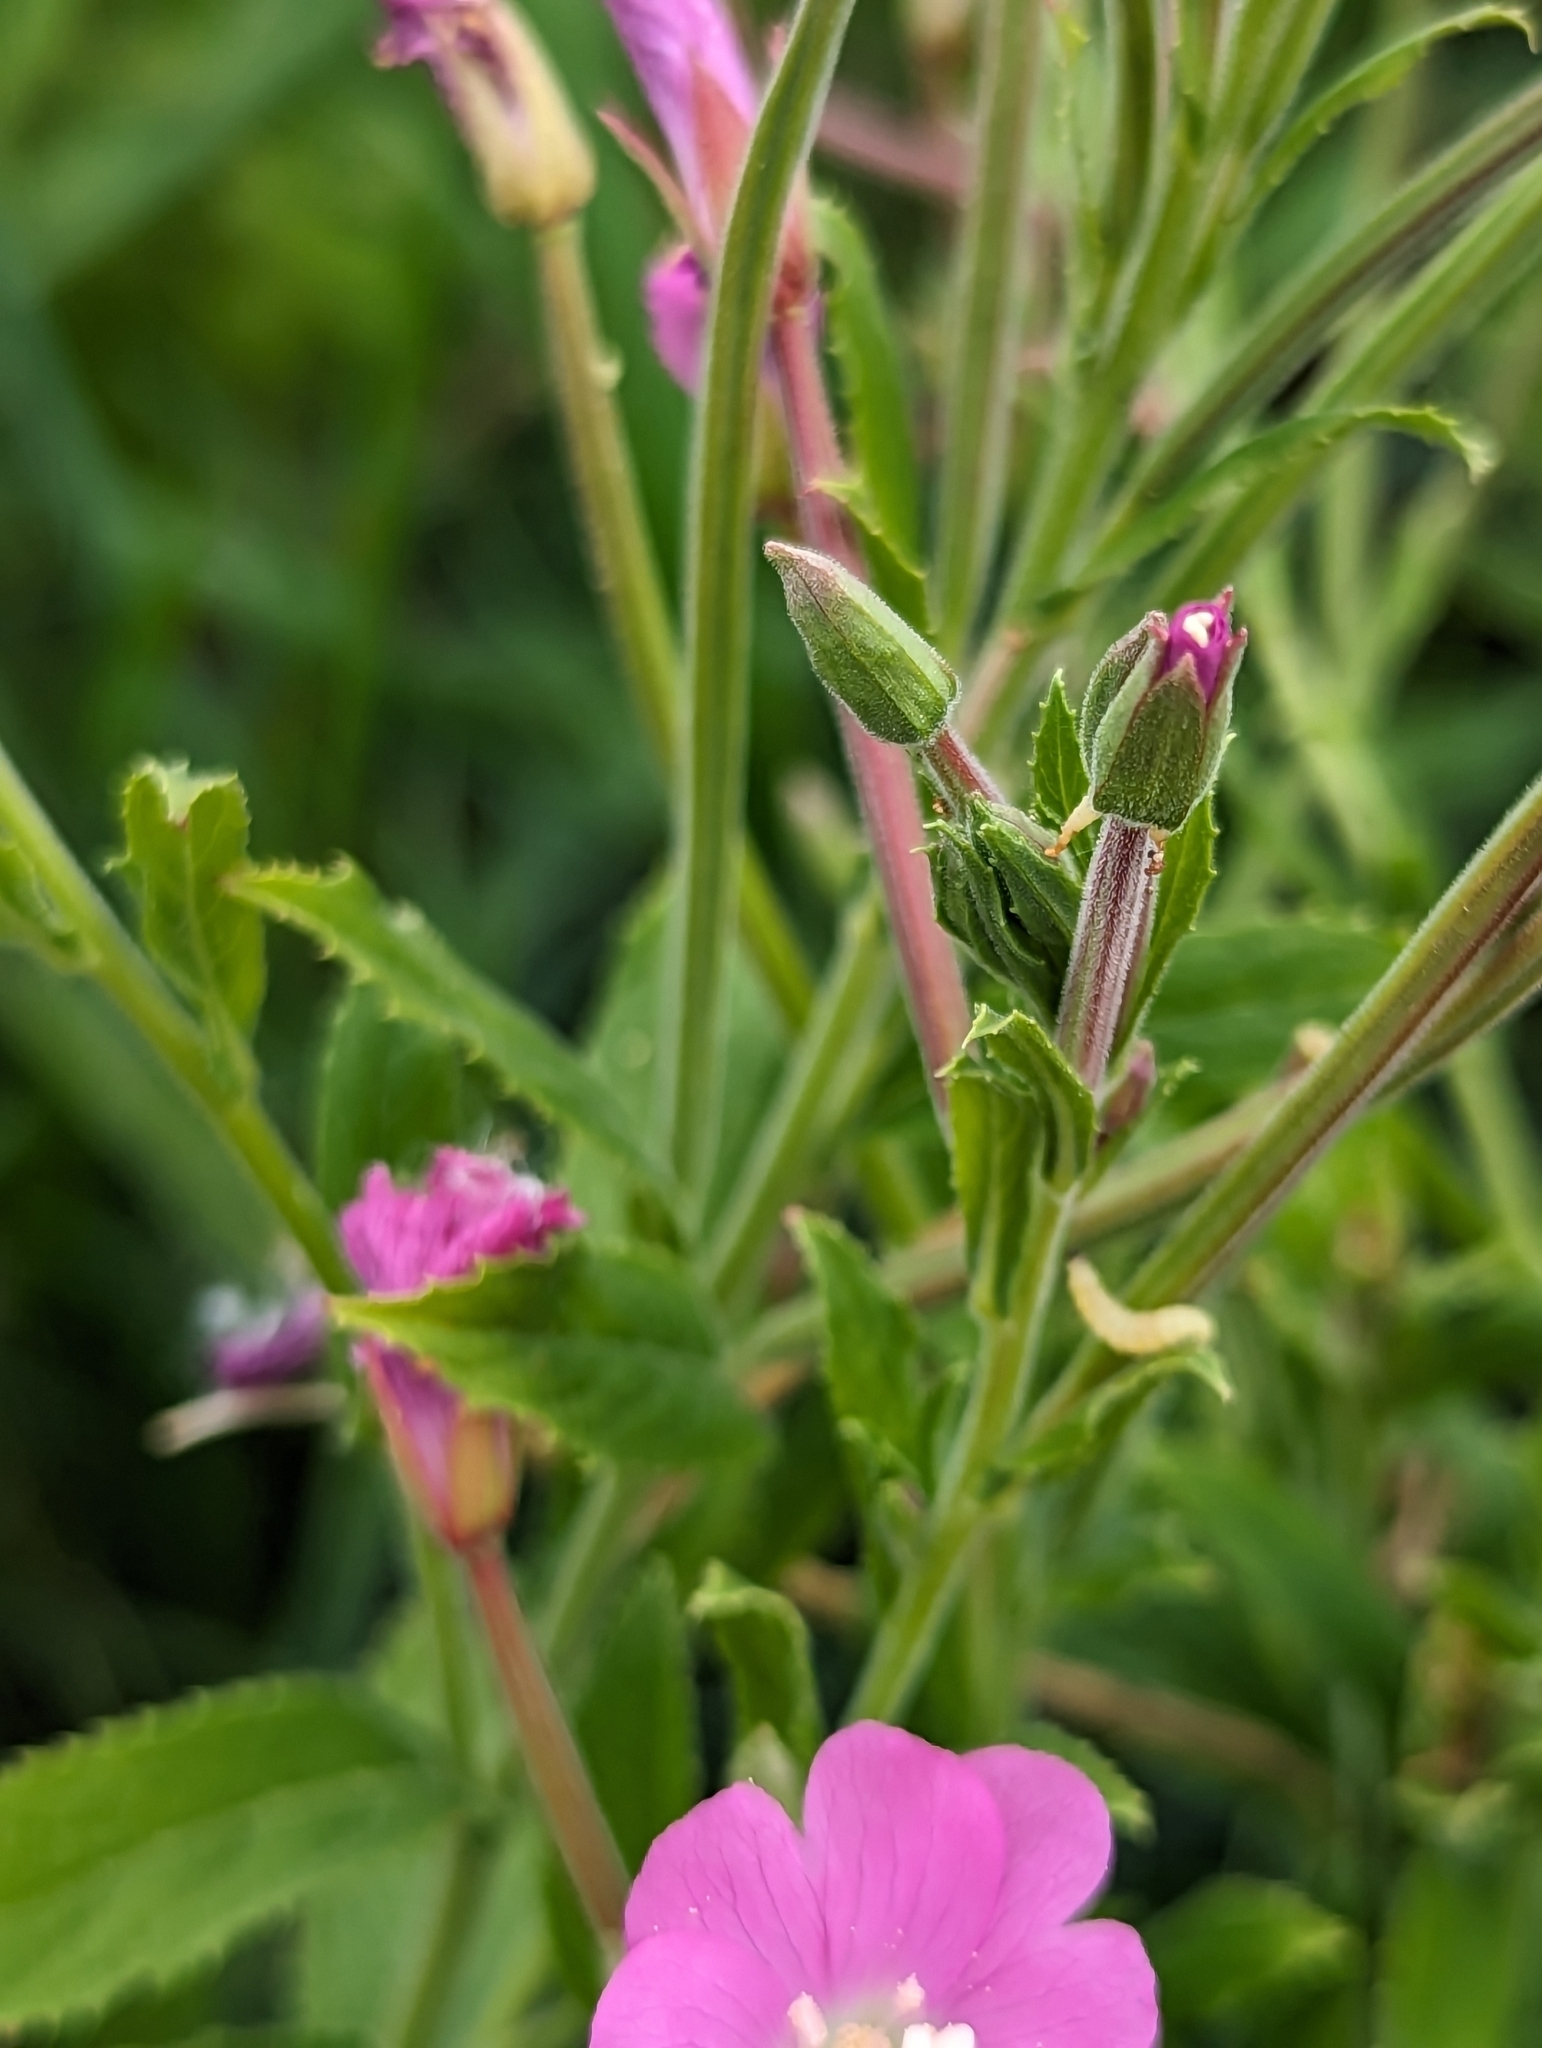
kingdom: Plantae
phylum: Tracheophyta
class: Magnoliopsida
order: Myrtales
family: Onagraceae
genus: Epilobium
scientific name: Epilobium hirsutum
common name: Great willowherb
